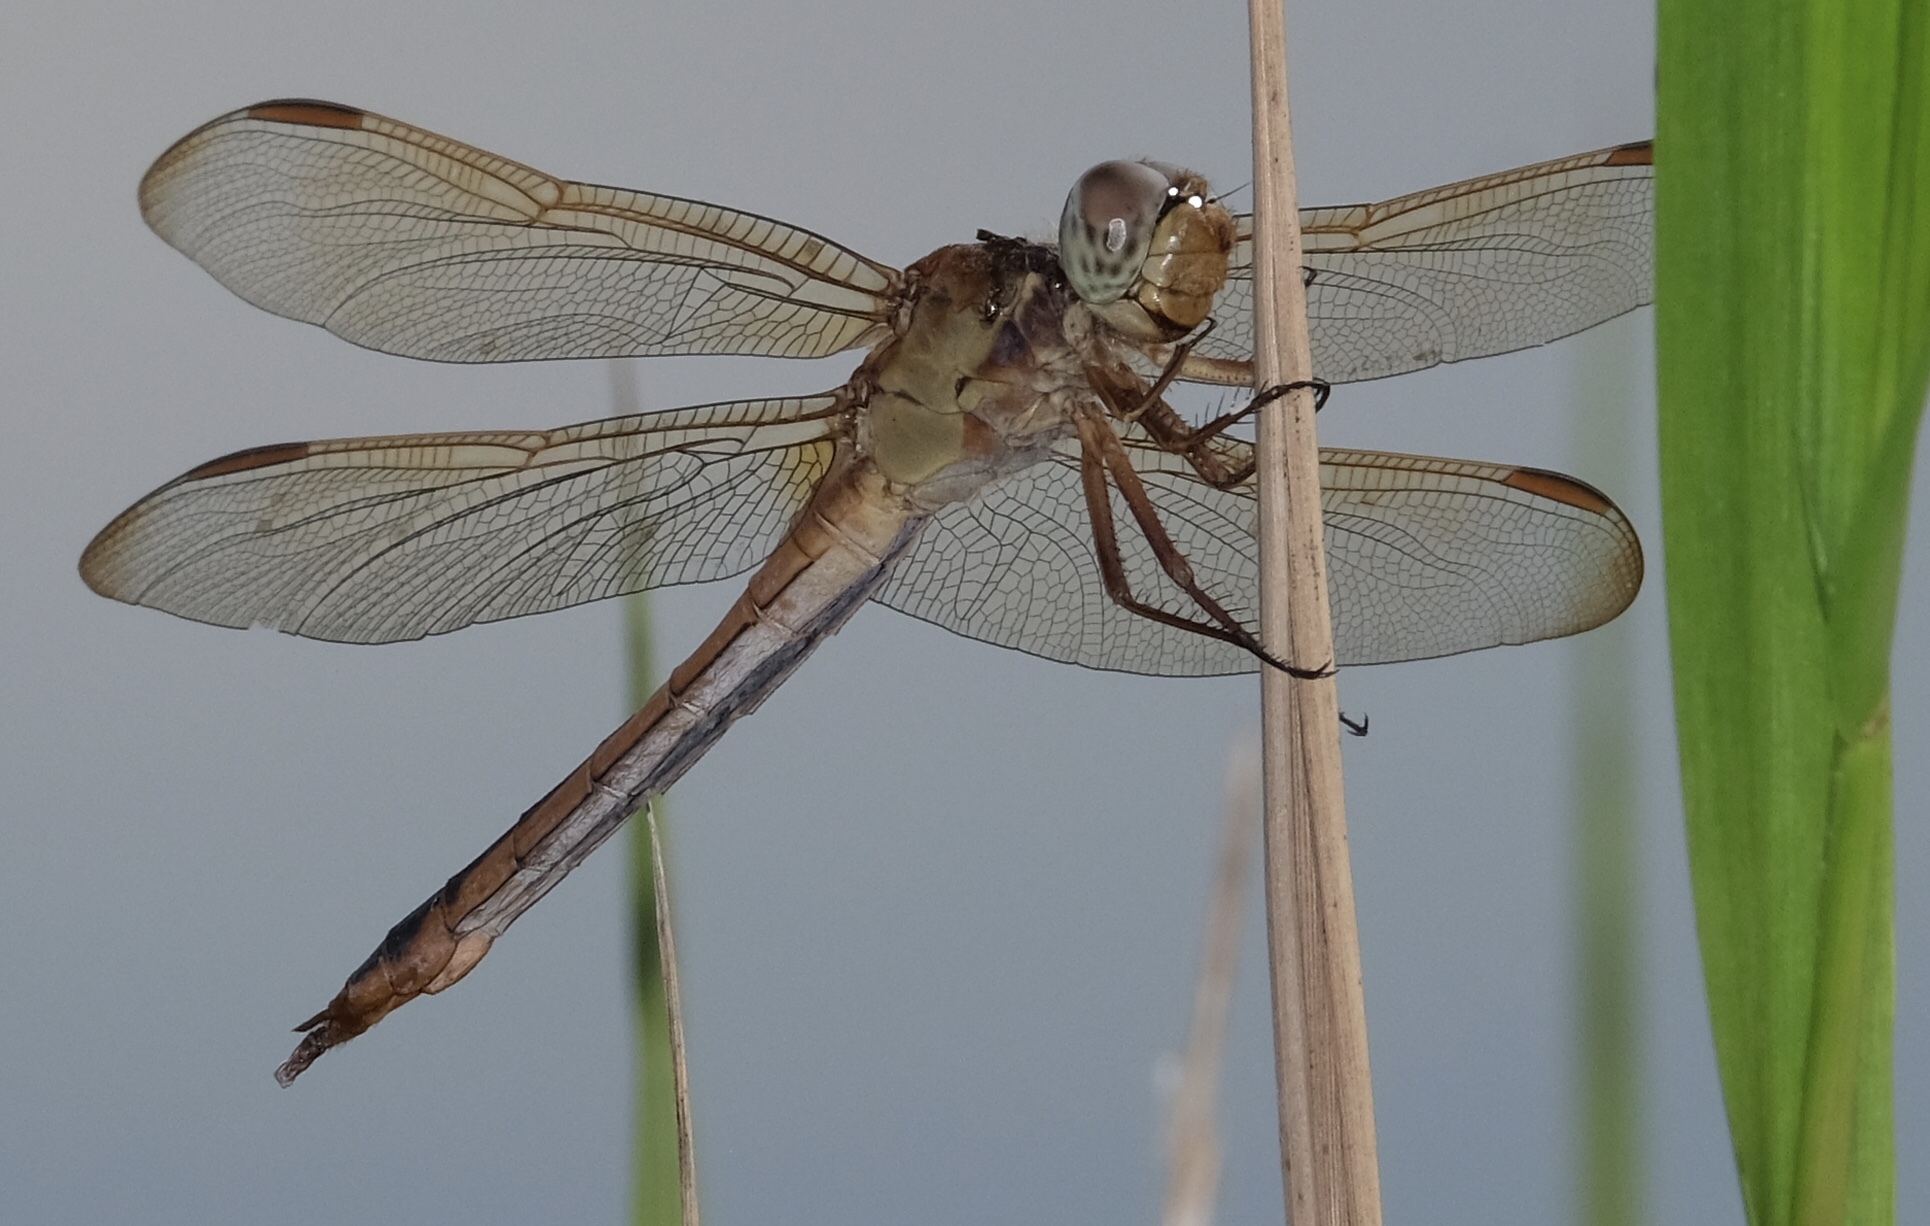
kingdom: Animalia
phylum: Arthropoda
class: Insecta
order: Odonata
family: Libellulidae
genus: Libellula
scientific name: Libellula needhami
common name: Needham's skimmer
